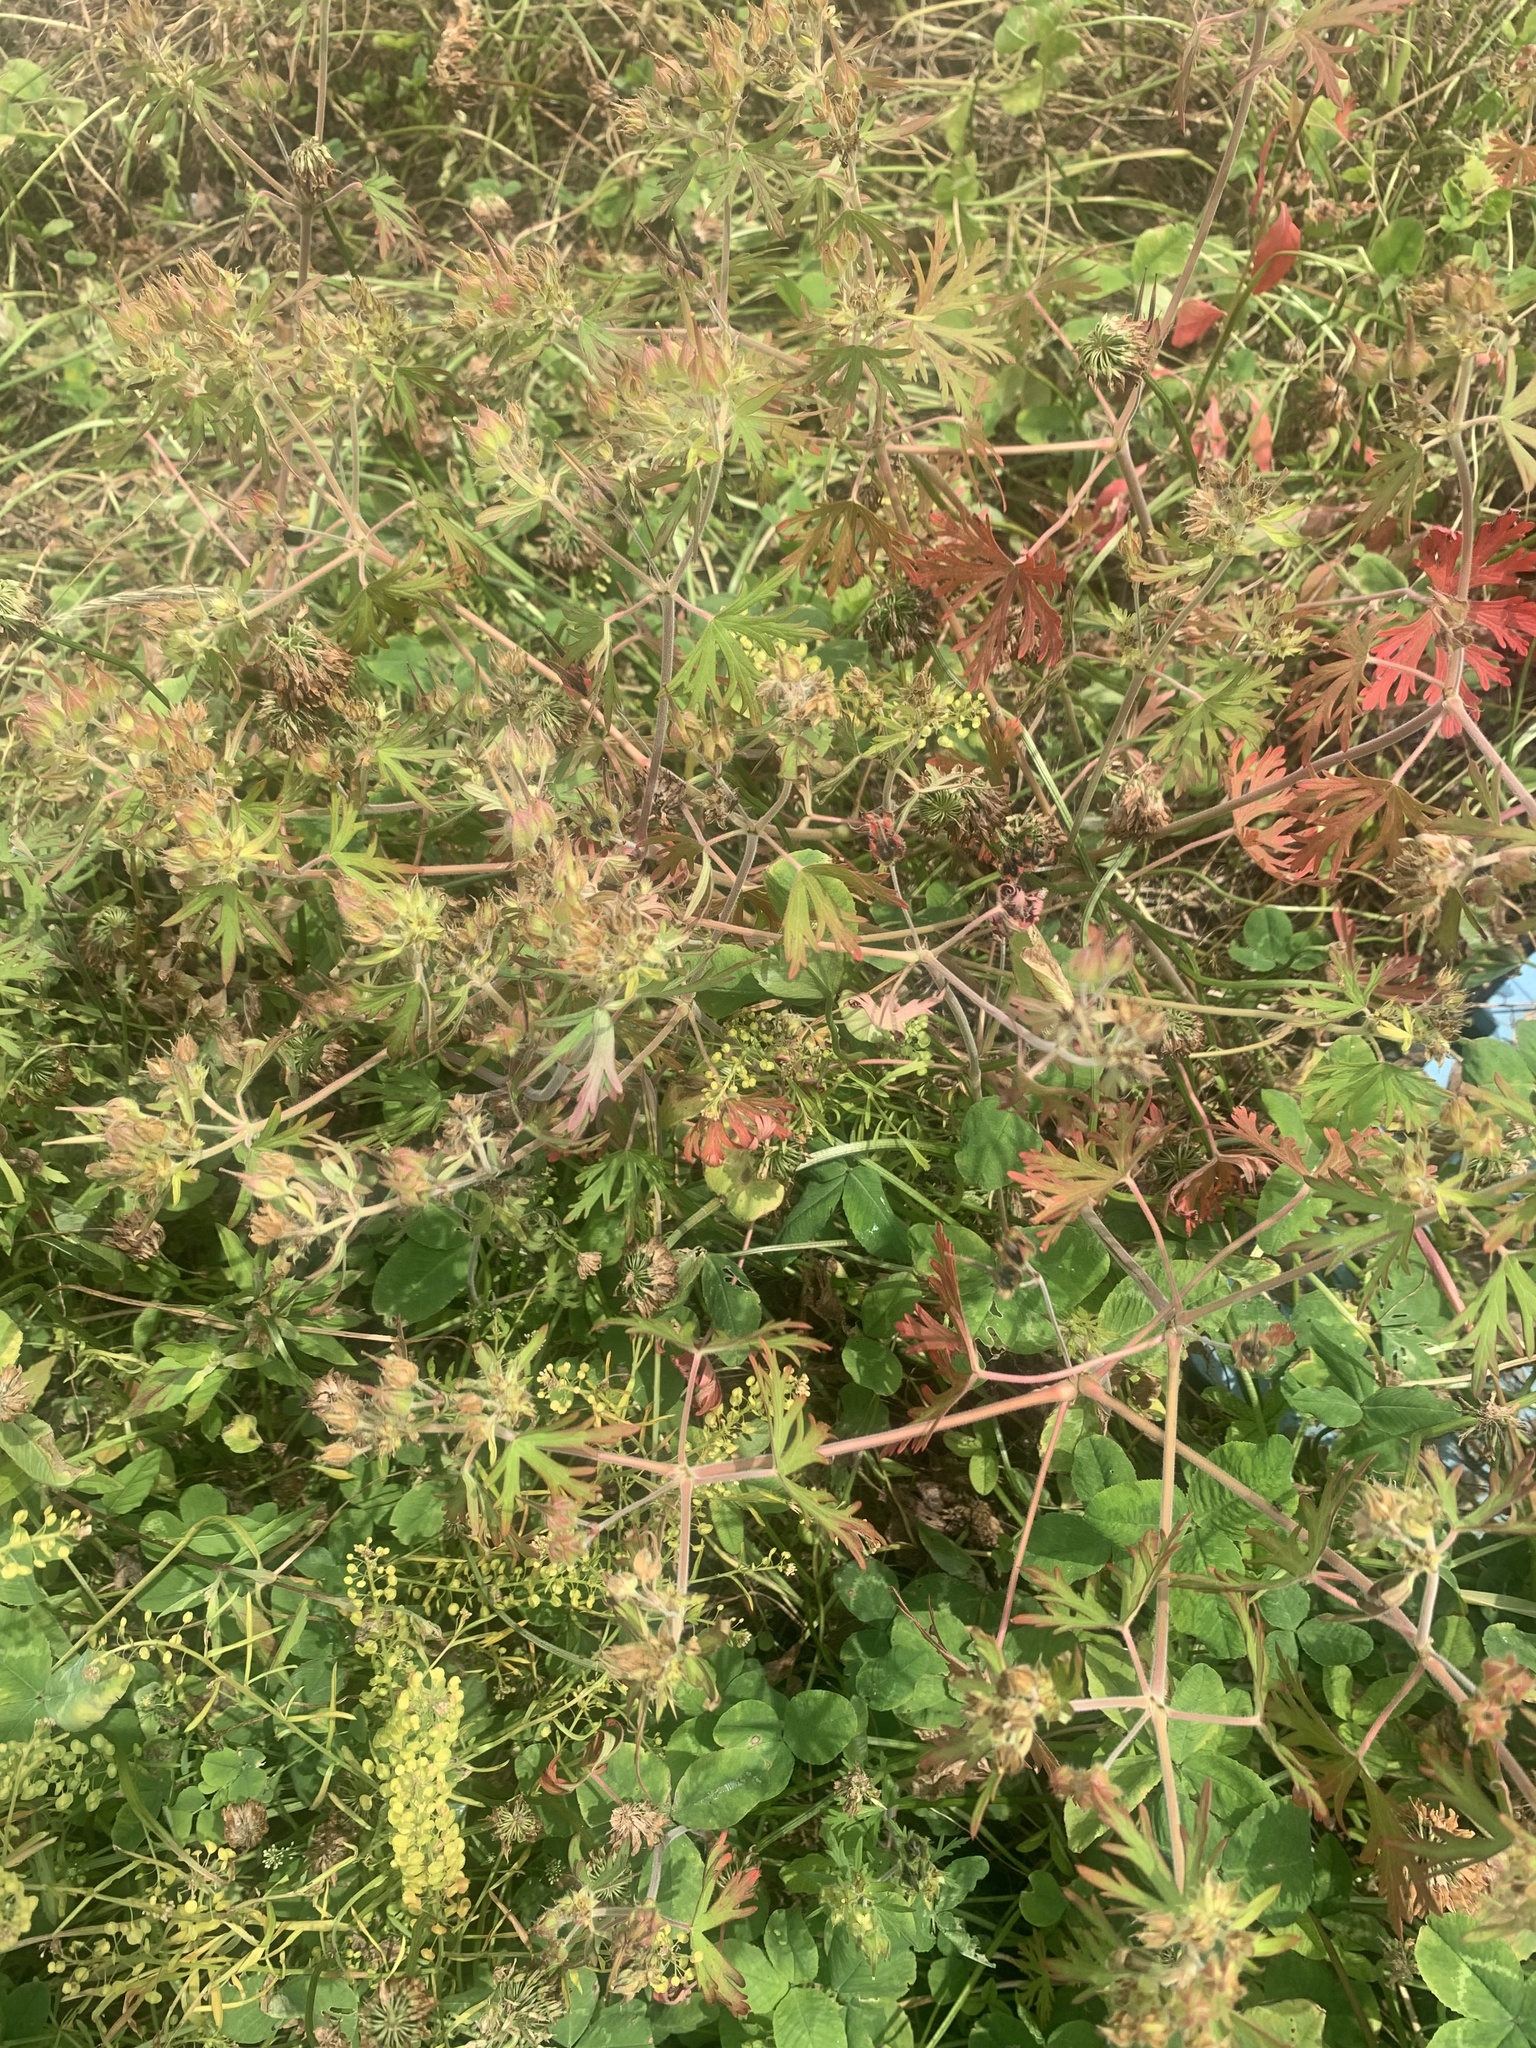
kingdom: Plantae
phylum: Tracheophyta
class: Magnoliopsida
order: Geraniales
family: Geraniaceae
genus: Geranium
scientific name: Geranium carolinianum
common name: Carolina crane's-bill
